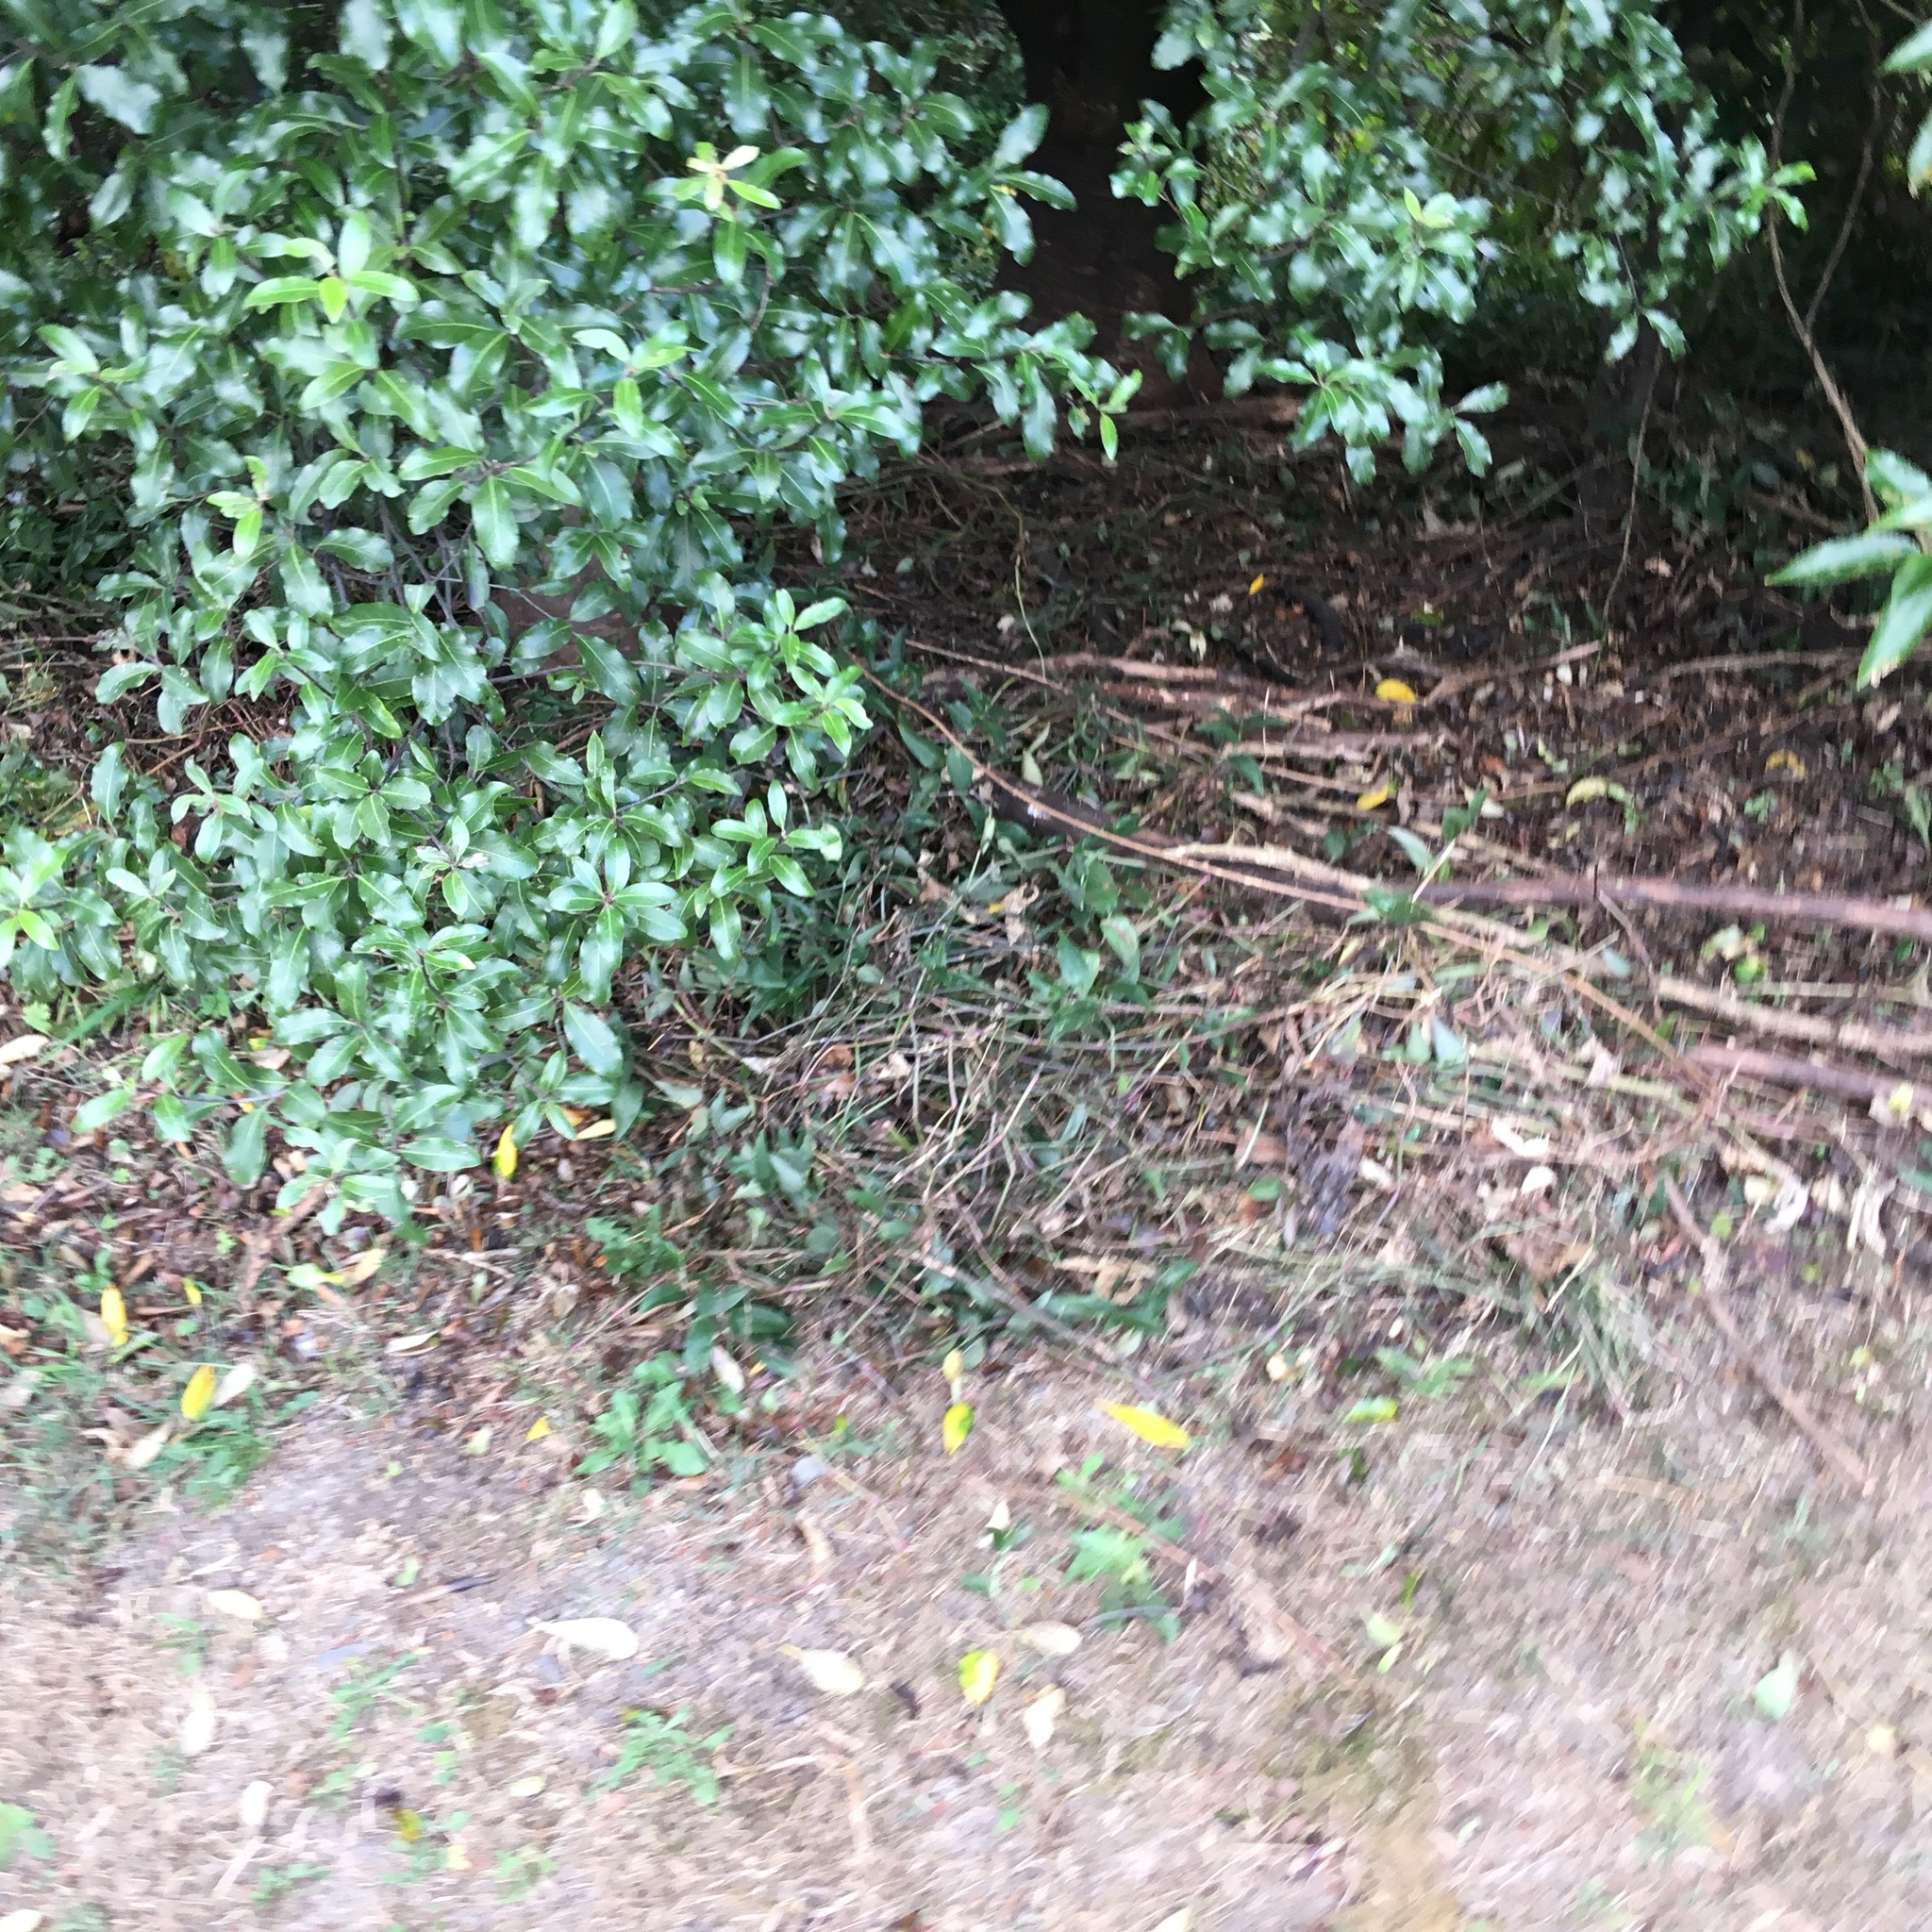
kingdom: Plantae
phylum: Tracheophyta
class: Liliopsida
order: Commelinales
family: Commelinaceae
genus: Tradescantia
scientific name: Tradescantia fluminensis
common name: Wandering-jew
